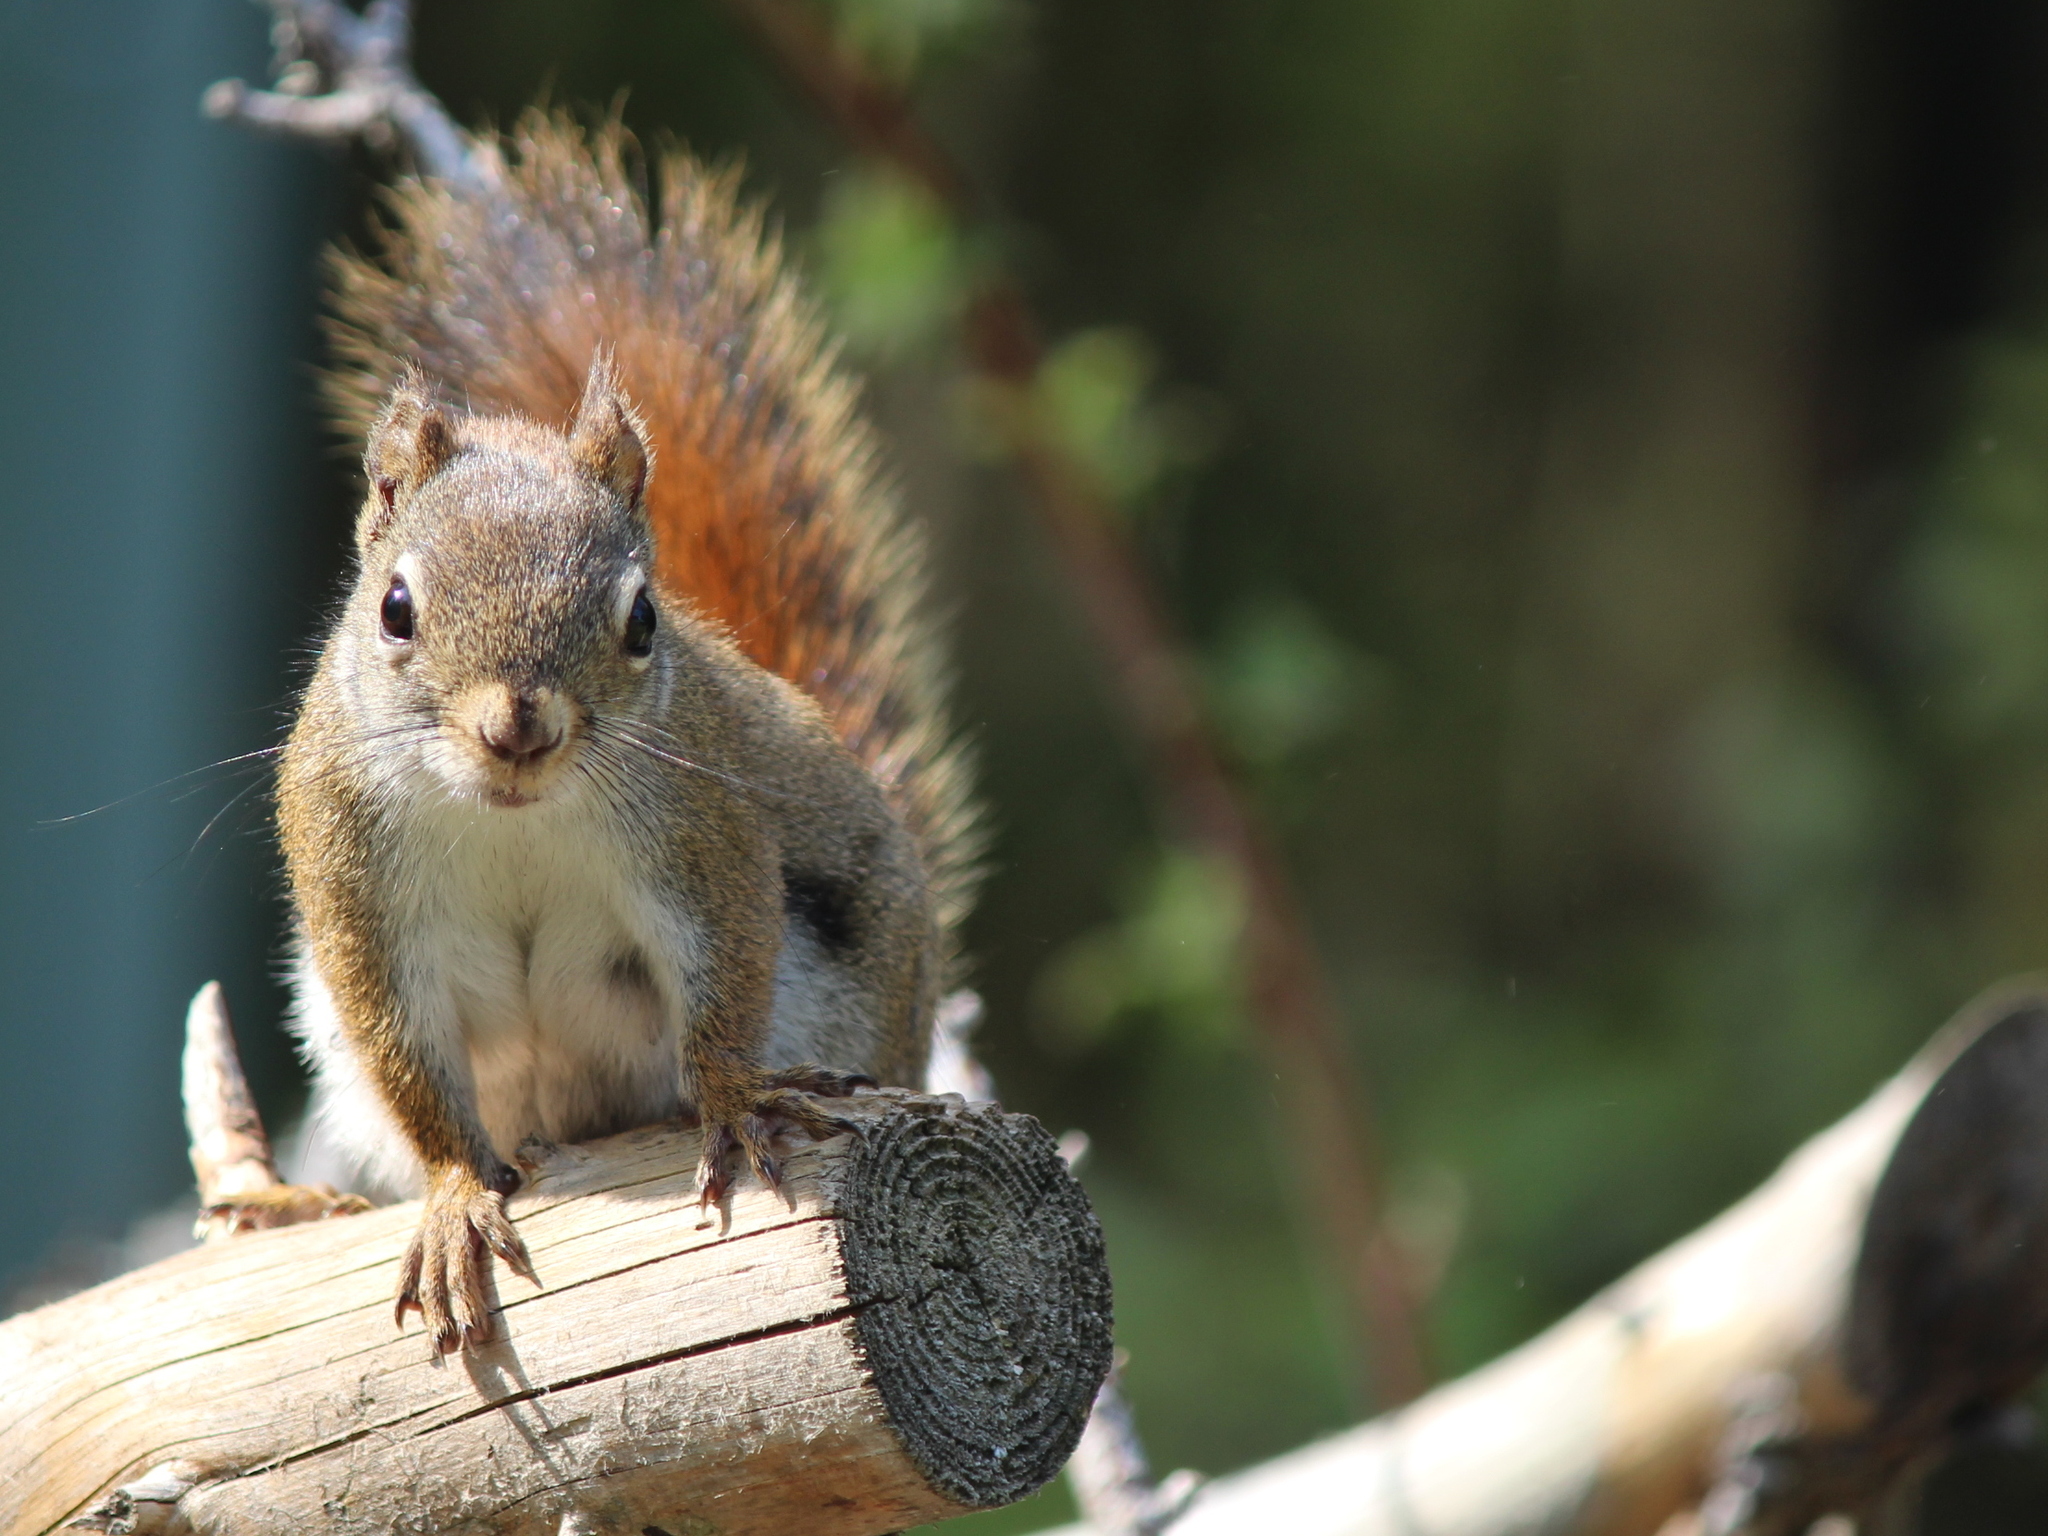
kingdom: Animalia
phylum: Chordata
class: Mammalia
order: Rodentia
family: Sciuridae
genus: Tamiasciurus
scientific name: Tamiasciurus hudsonicus
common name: Red squirrel
